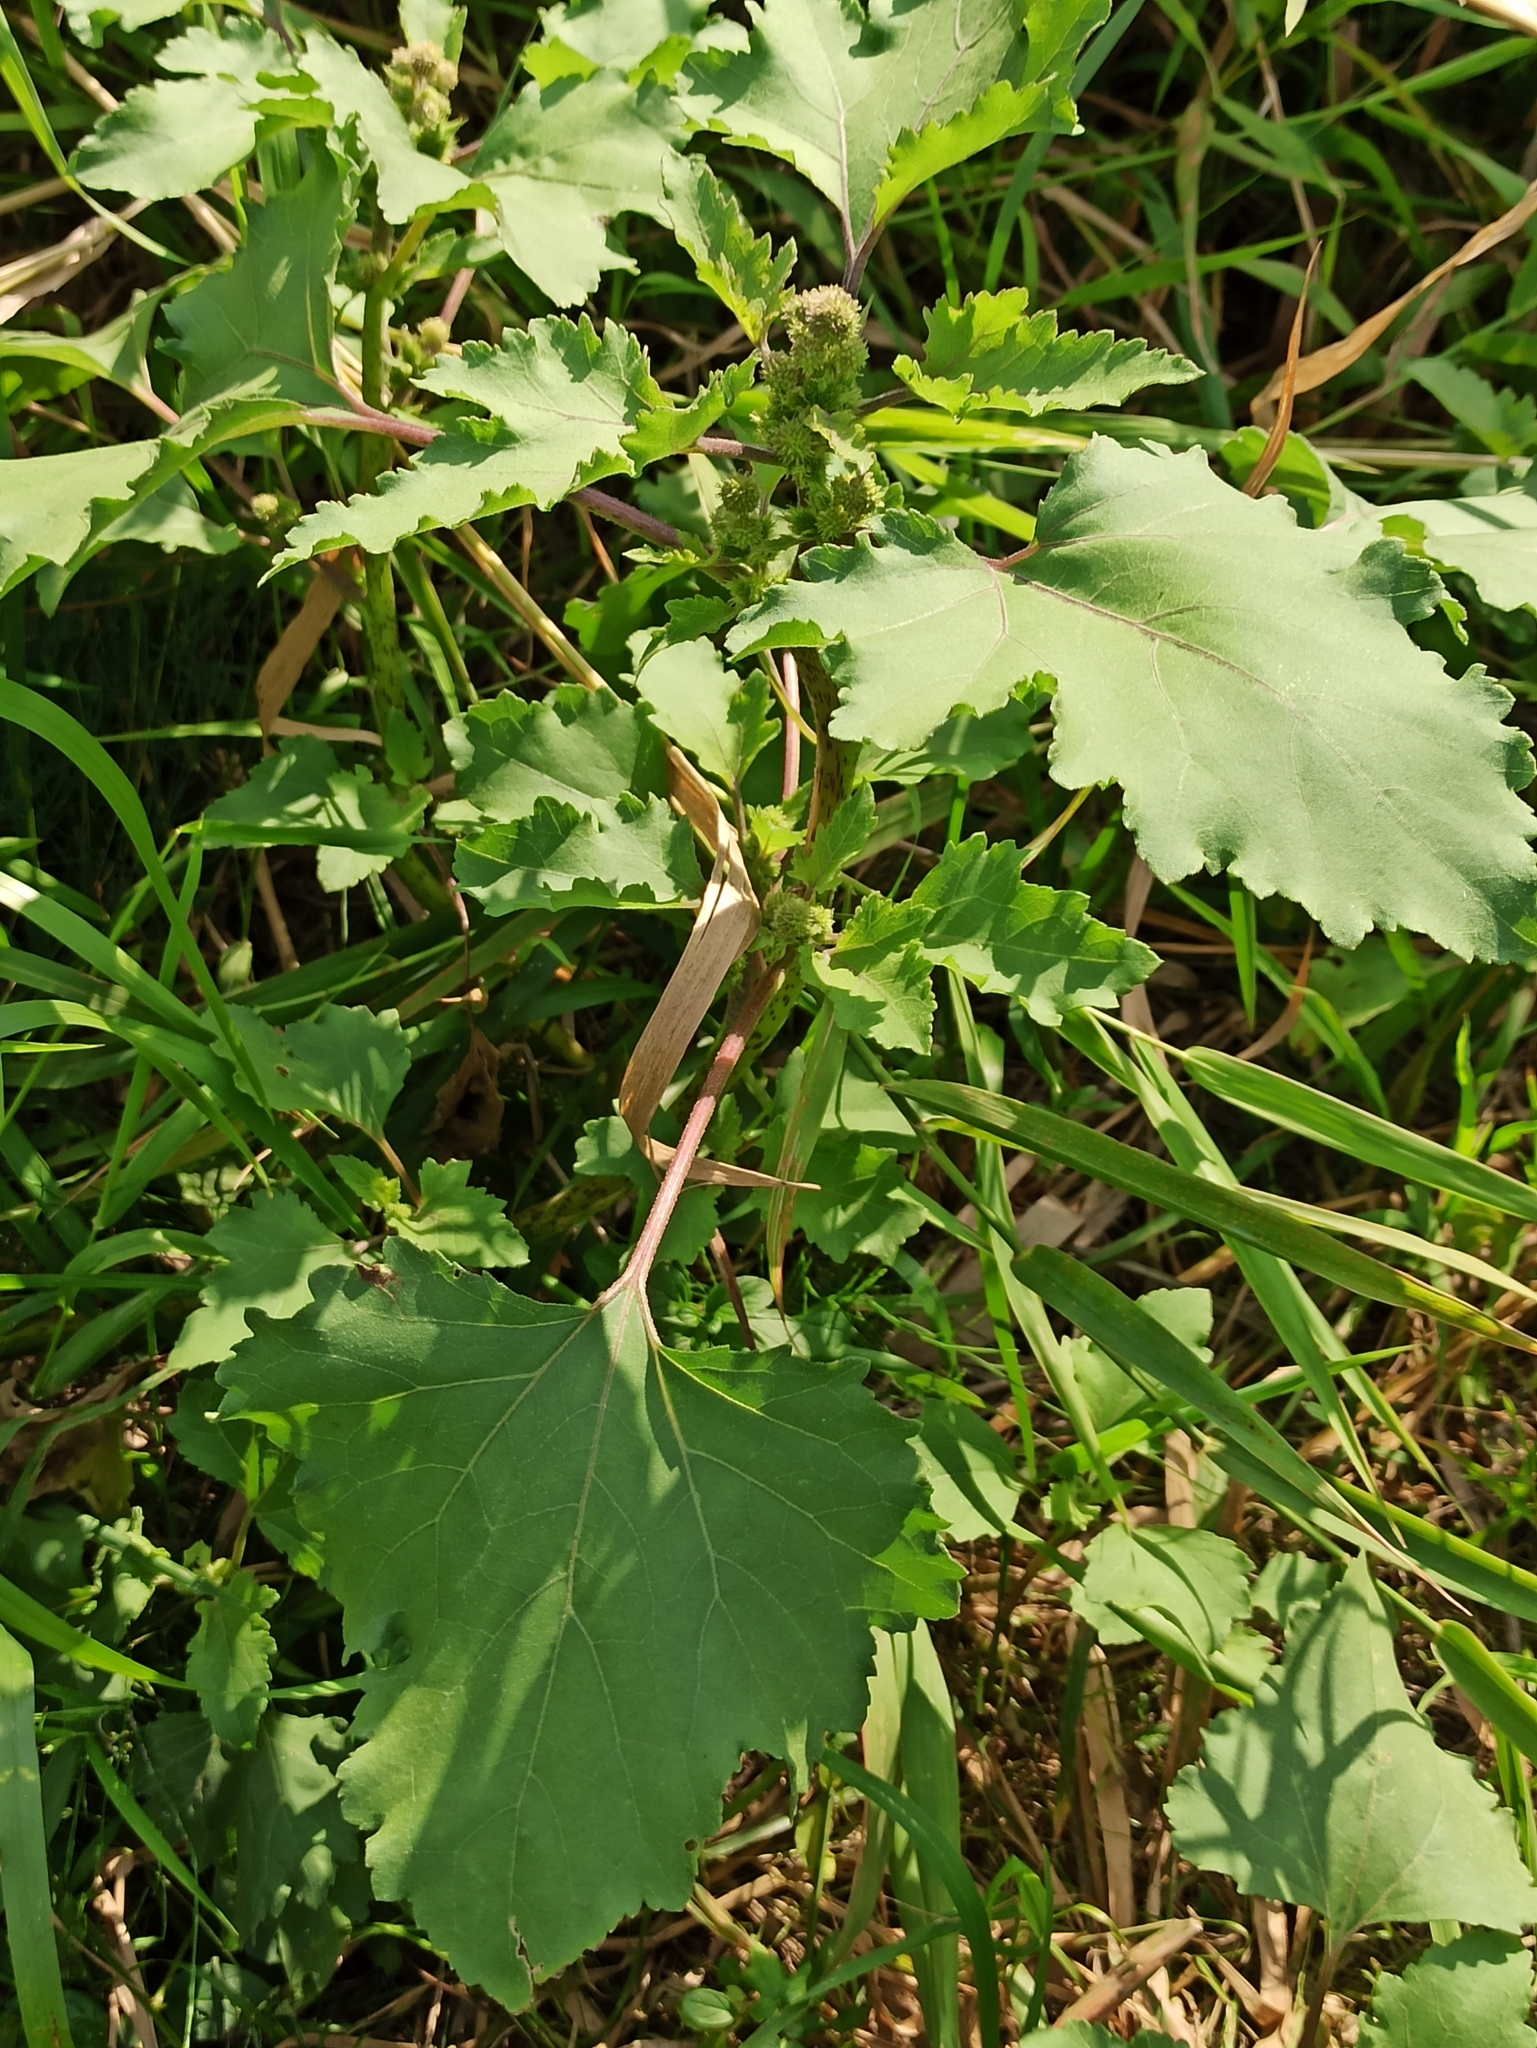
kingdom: Plantae
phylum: Tracheophyta
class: Magnoliopsida
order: Asterales
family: Asteraceae
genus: Xanthium
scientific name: Xanthium orientale
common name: Californian burr
